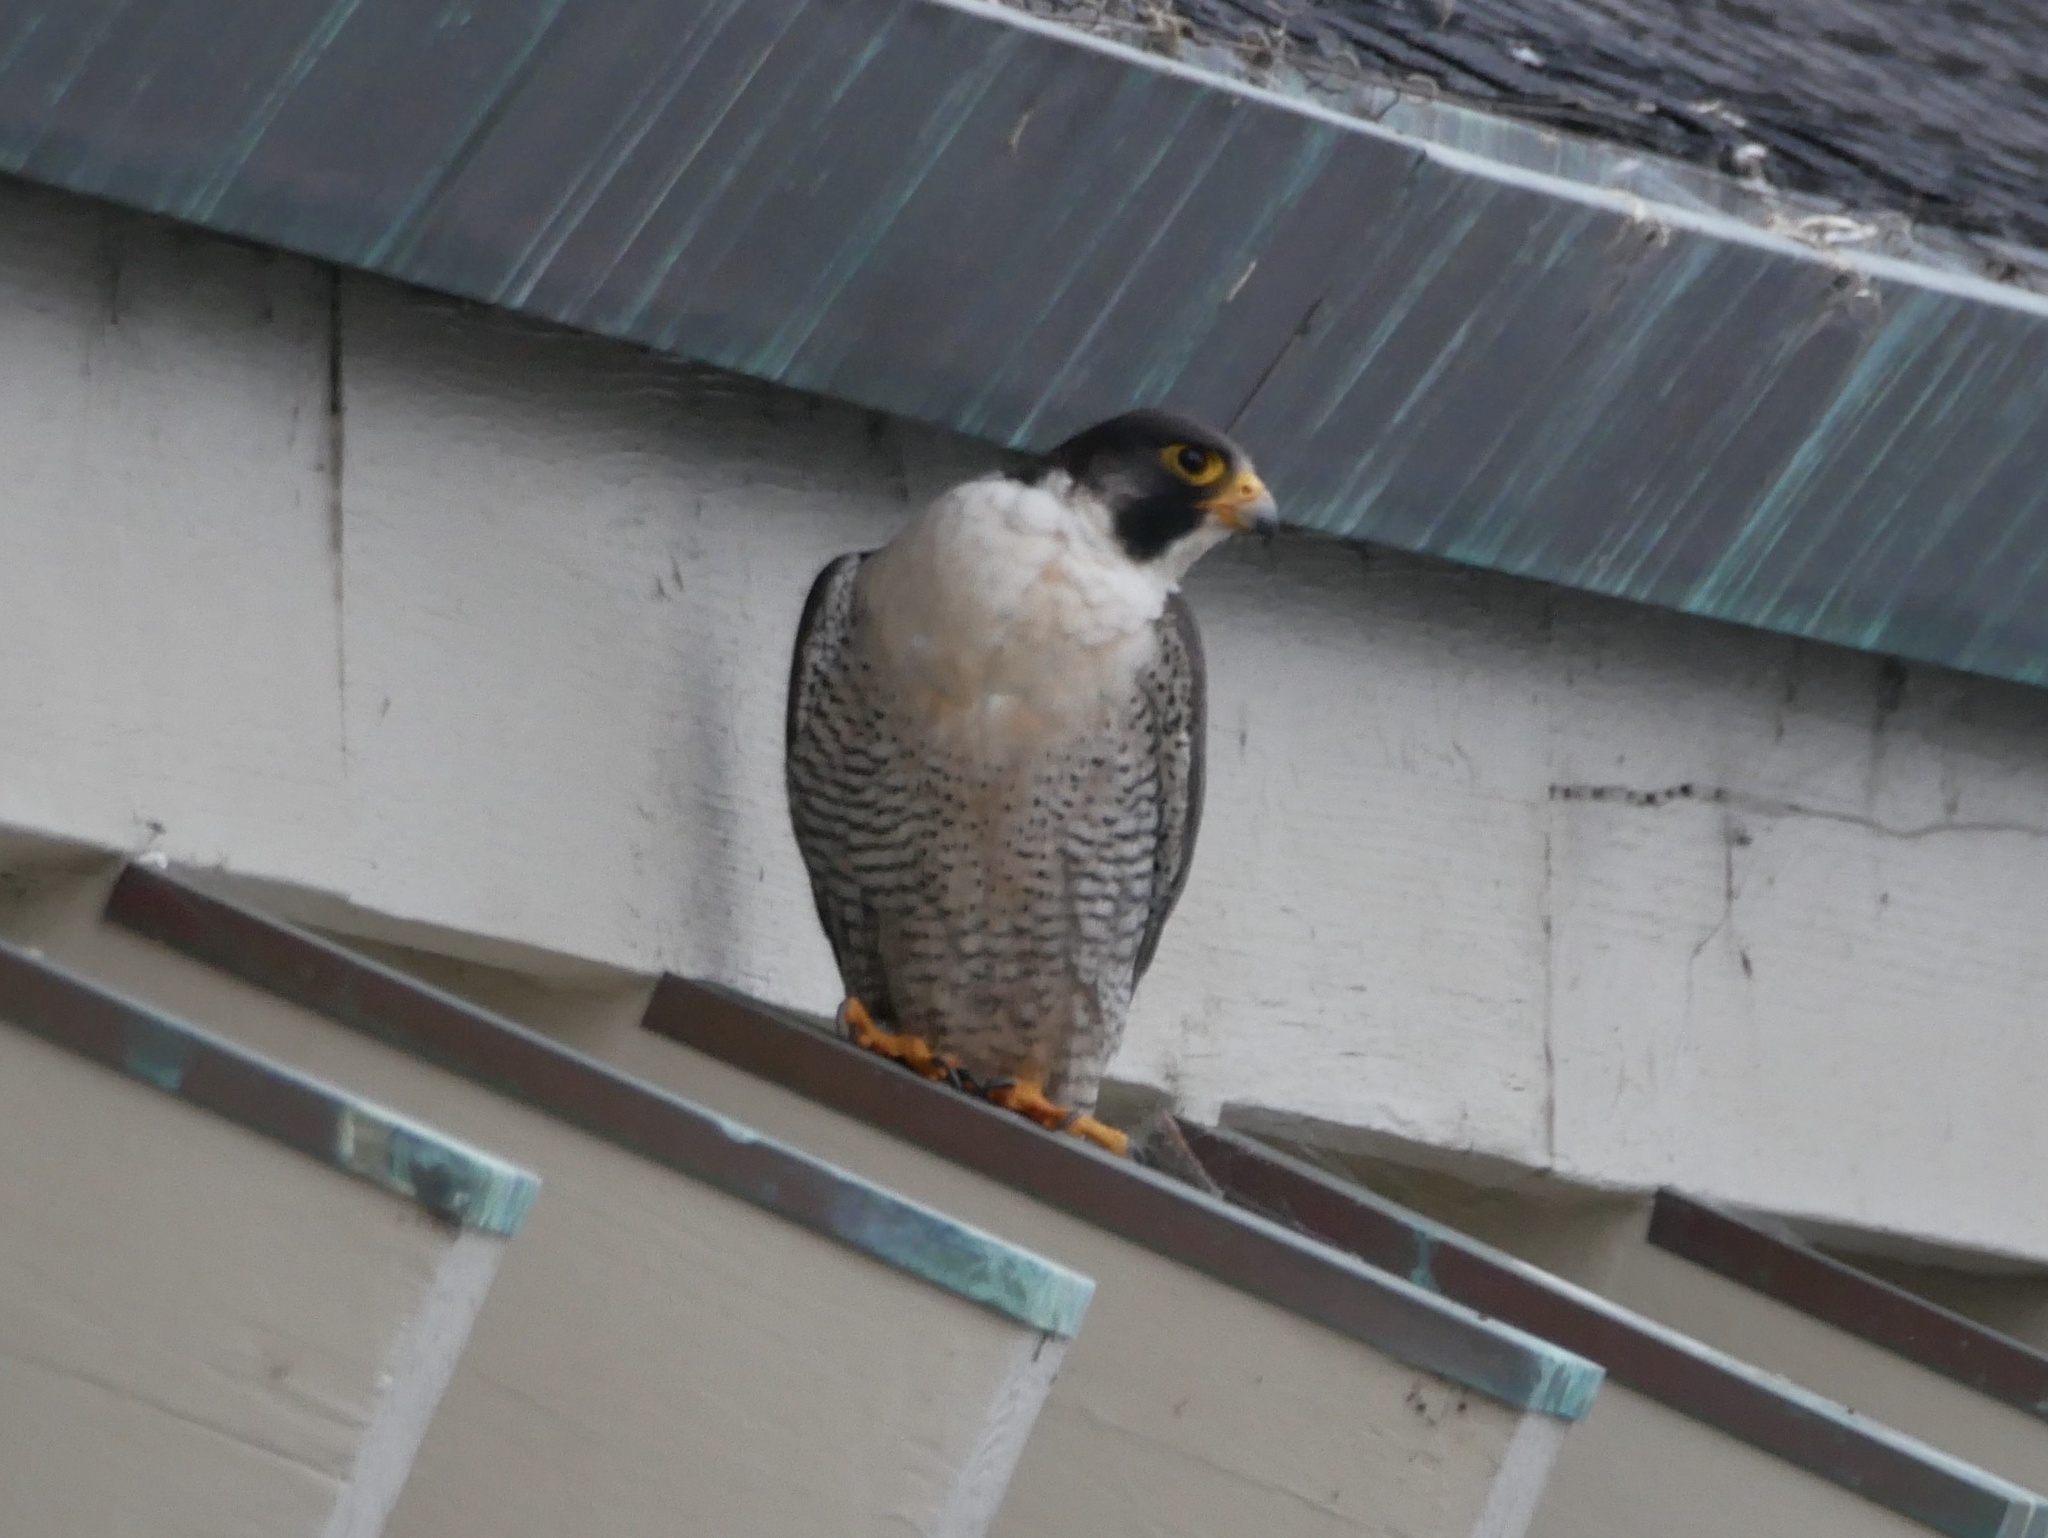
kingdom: Animalia
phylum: Chordata
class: Aves
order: Falconiformes
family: Falconidae
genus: Falco
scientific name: Falco peregrinus
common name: Peregrine falcon
